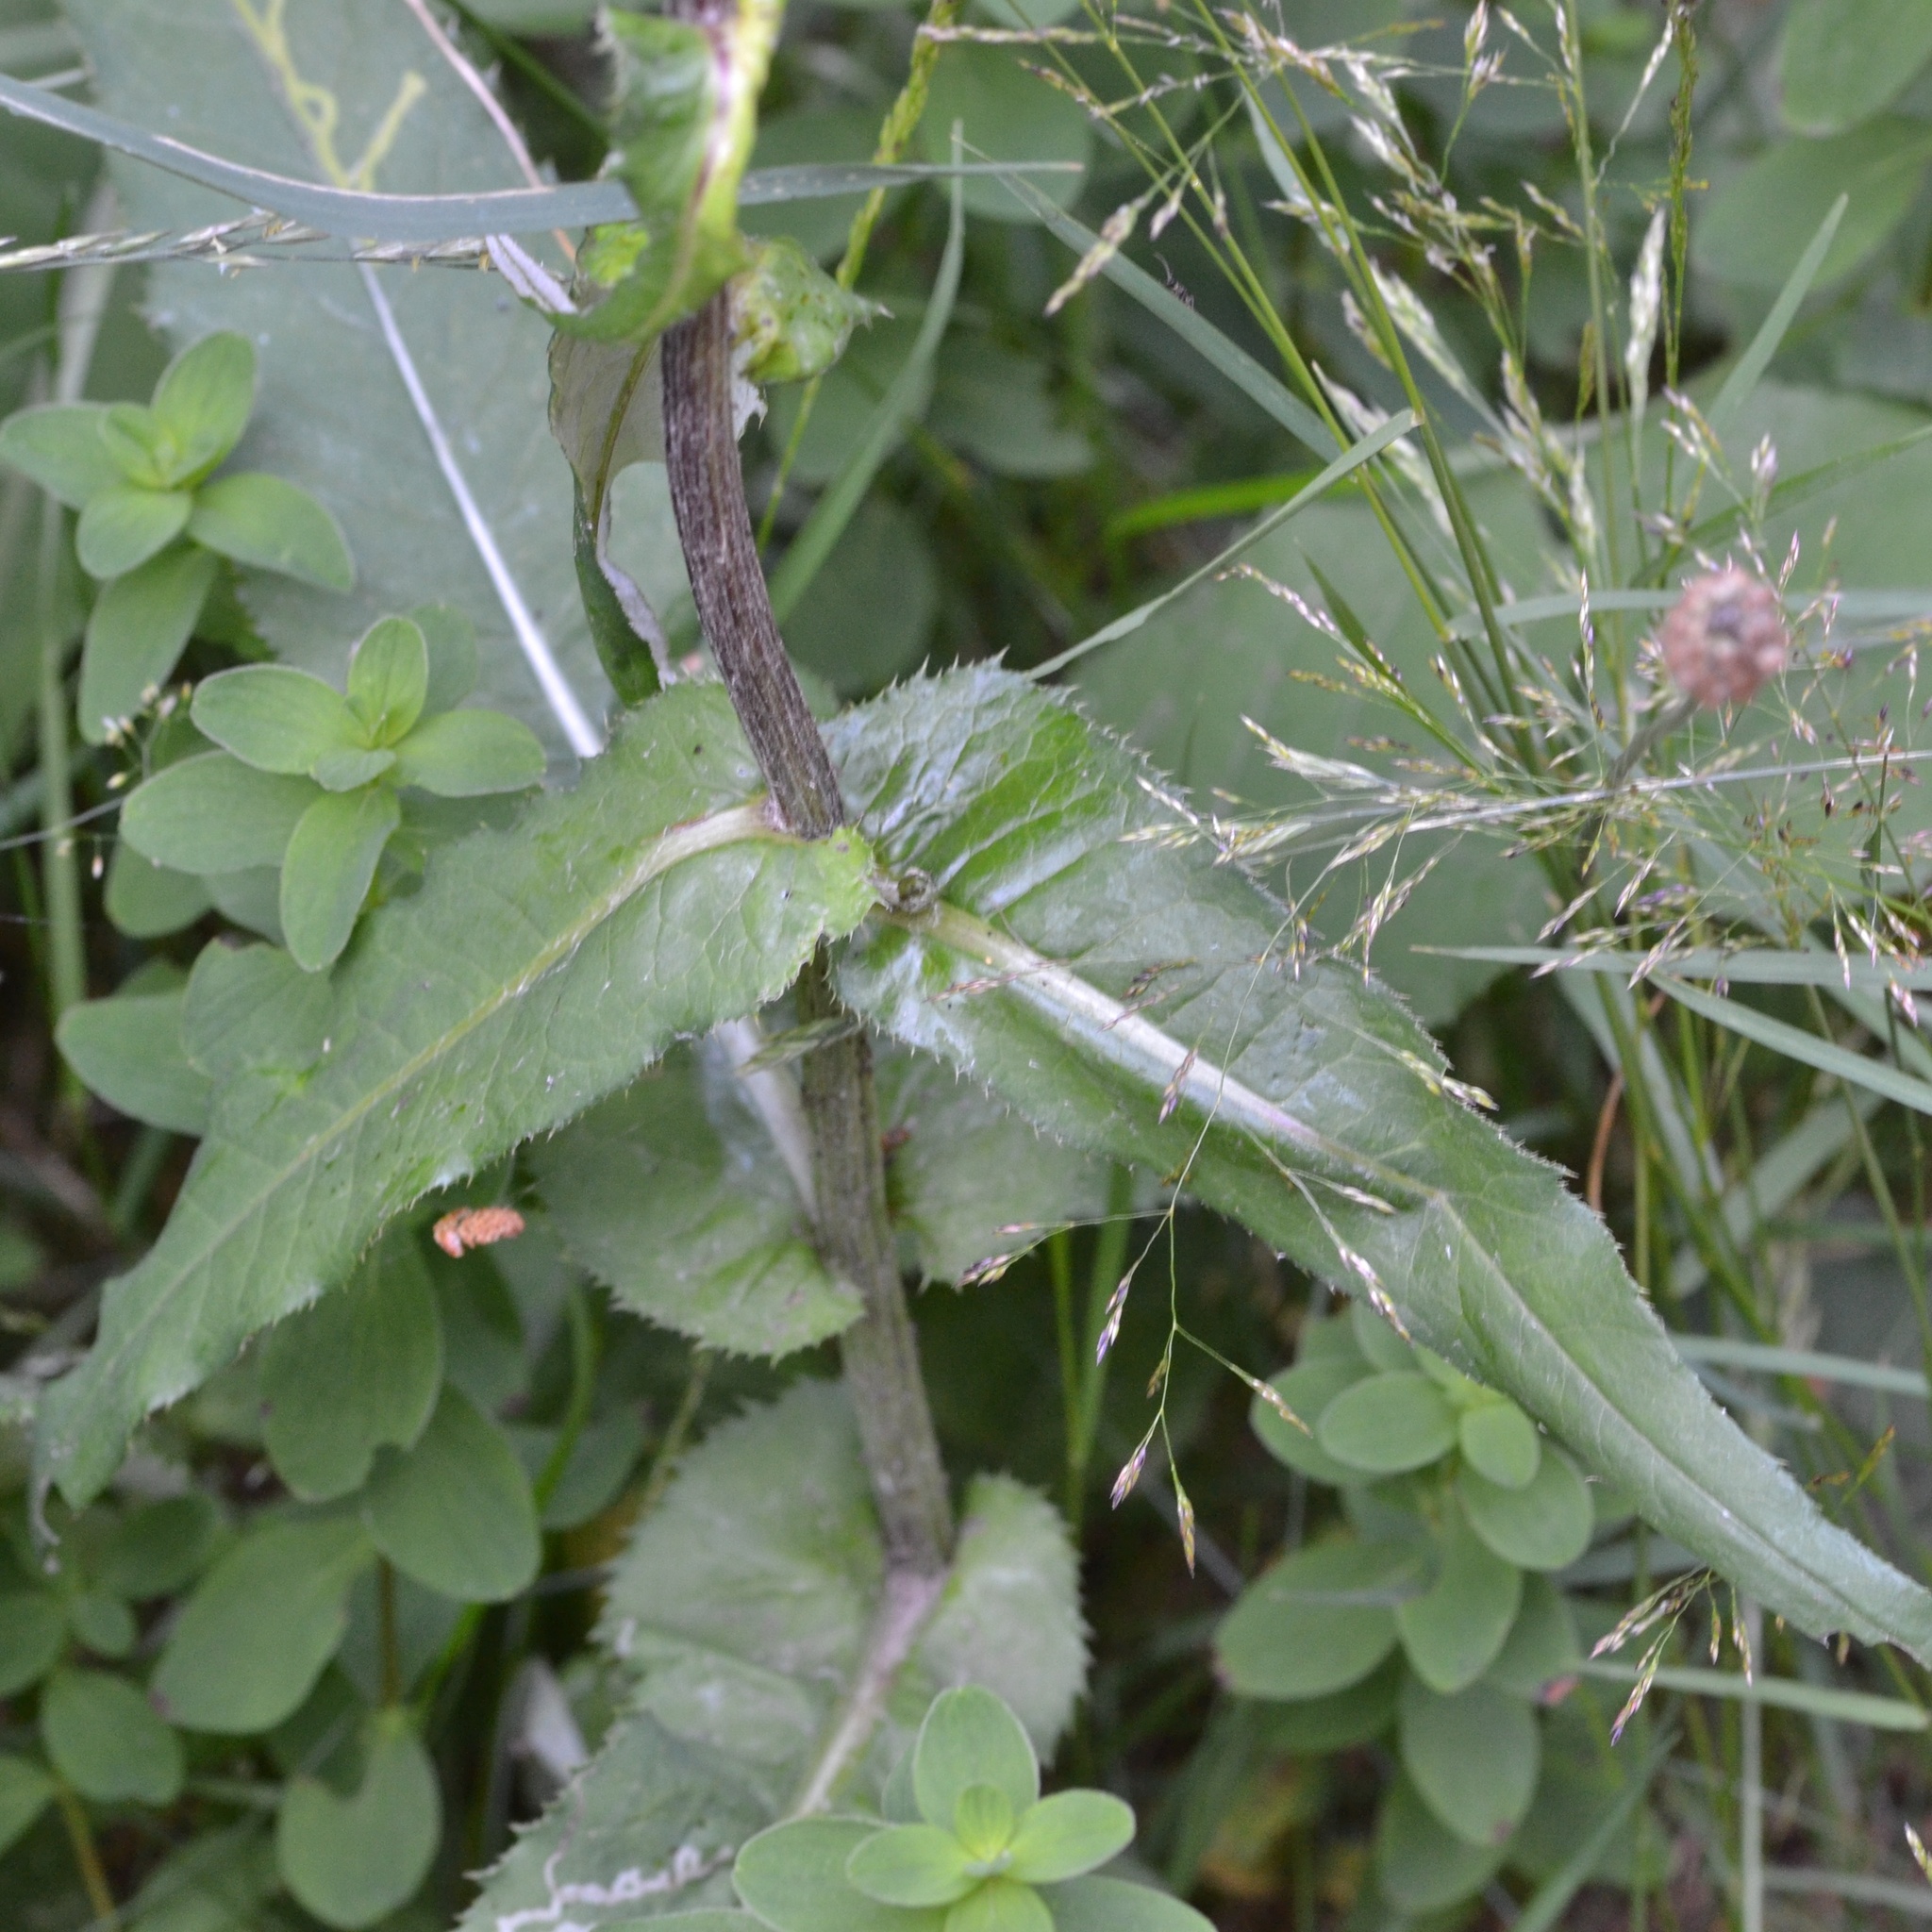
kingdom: Plantae
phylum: Tracheophyta
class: Magnoliopsida
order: Asterales
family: Asteraceae
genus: Cirsium
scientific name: Cirsium heterophyllum
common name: Melancholy thistle
